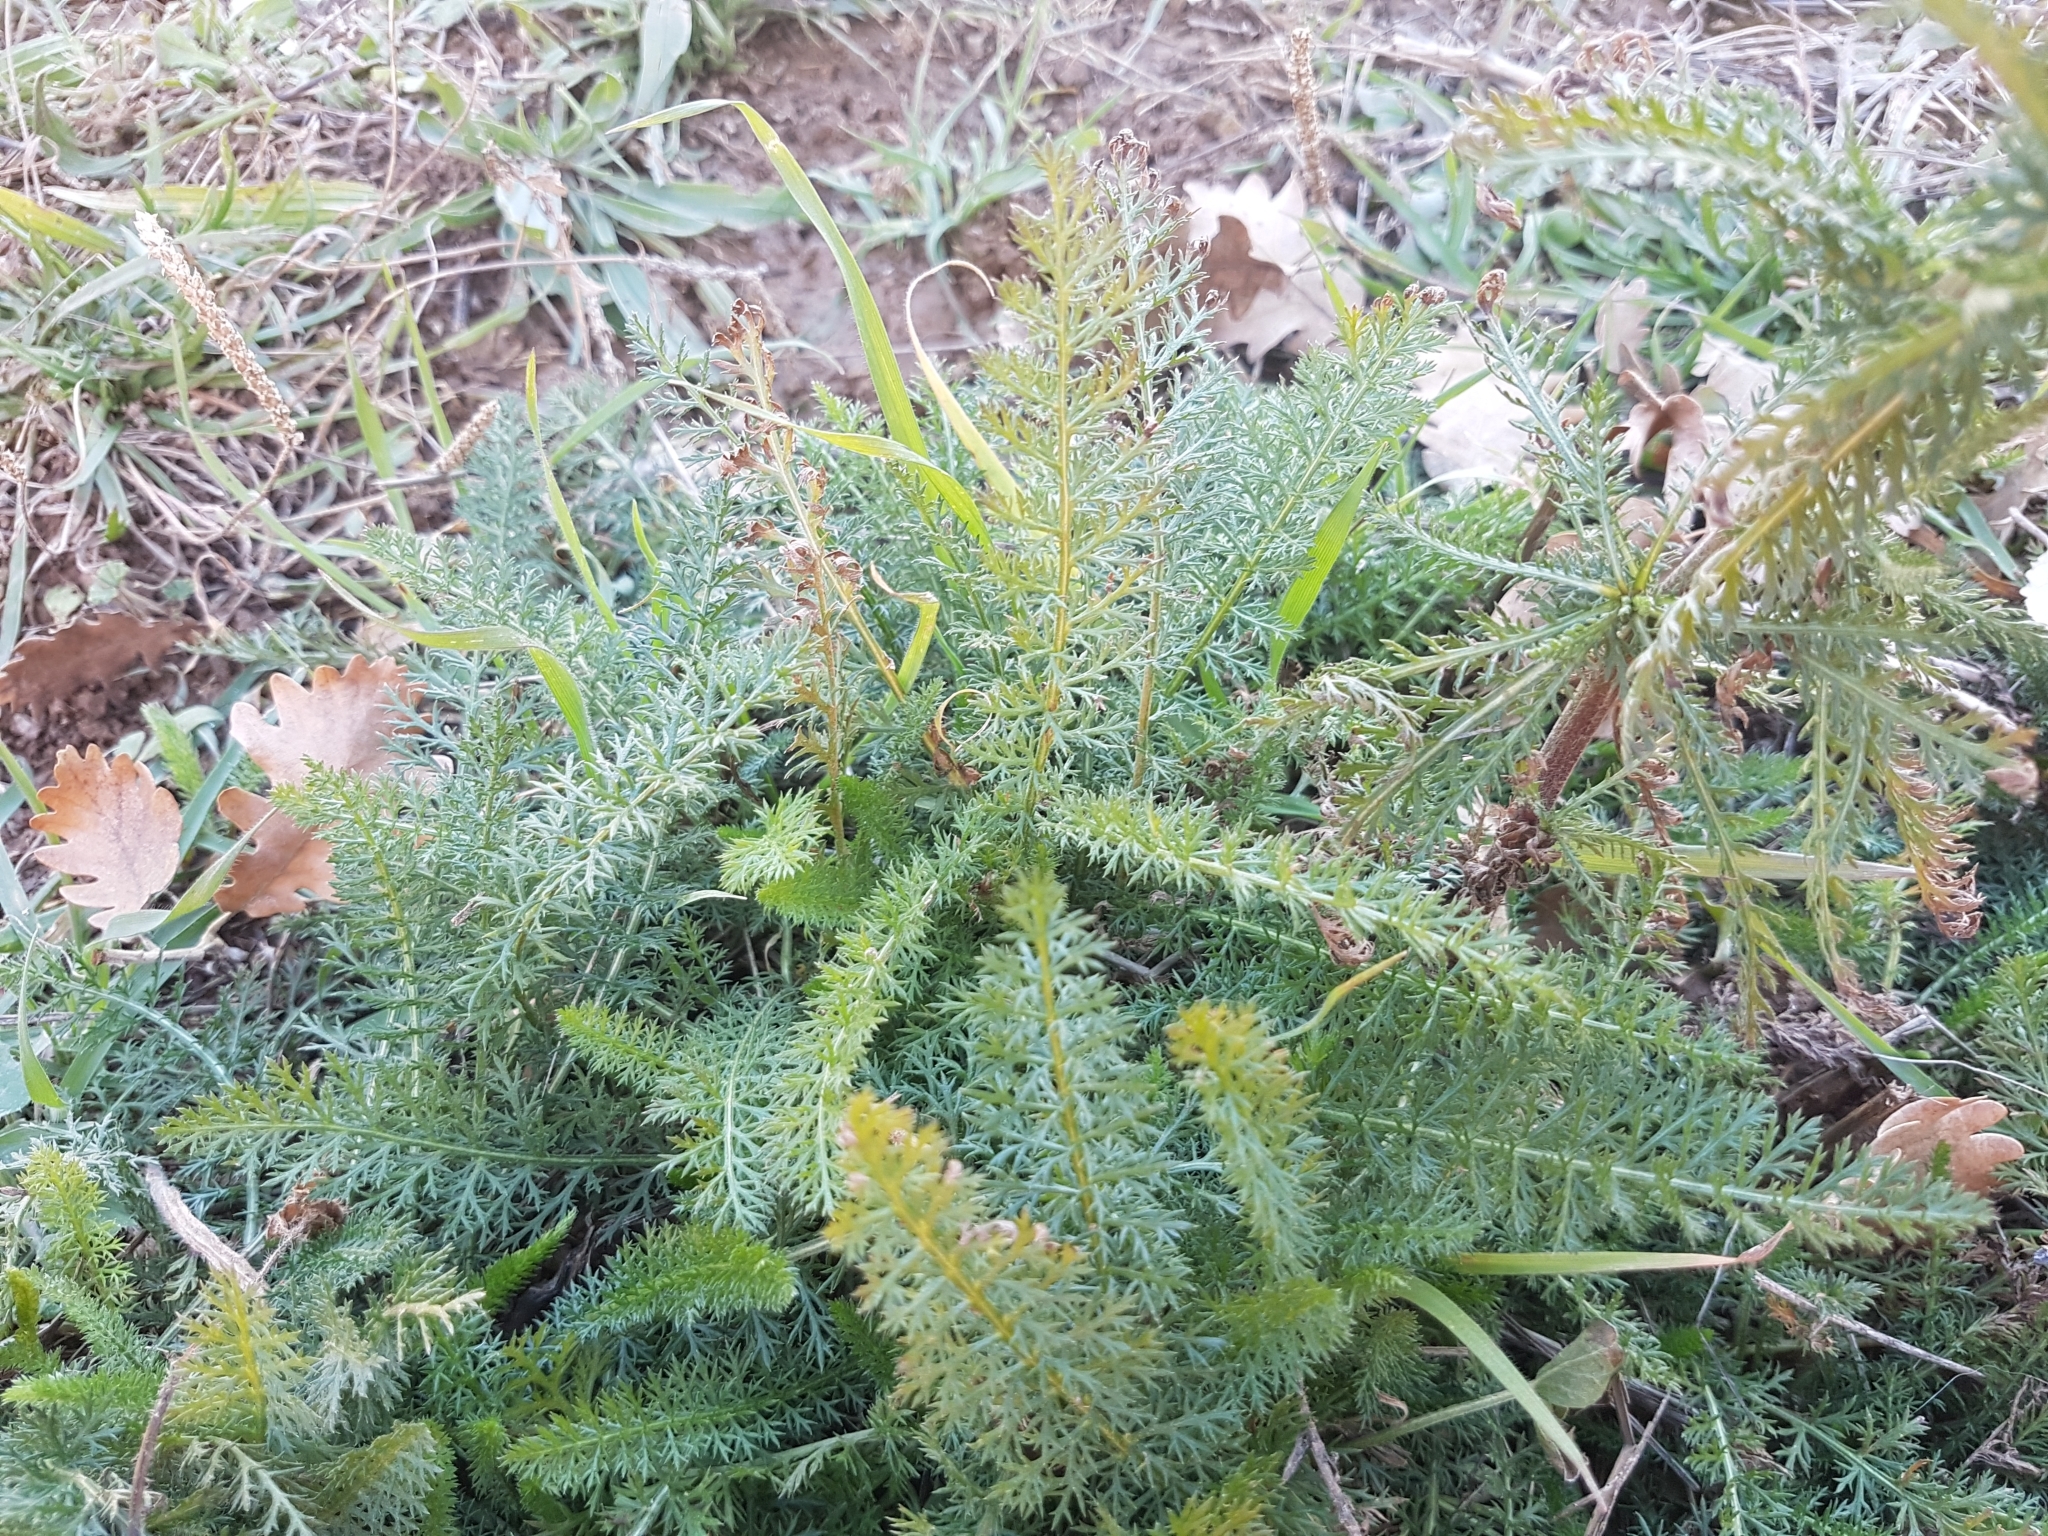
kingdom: Plantae
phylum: Tracheophyta
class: Magnoliopsida
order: Asterales
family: Asteraceae
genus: Achillea
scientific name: Achillea millefolium
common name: Yarrow
